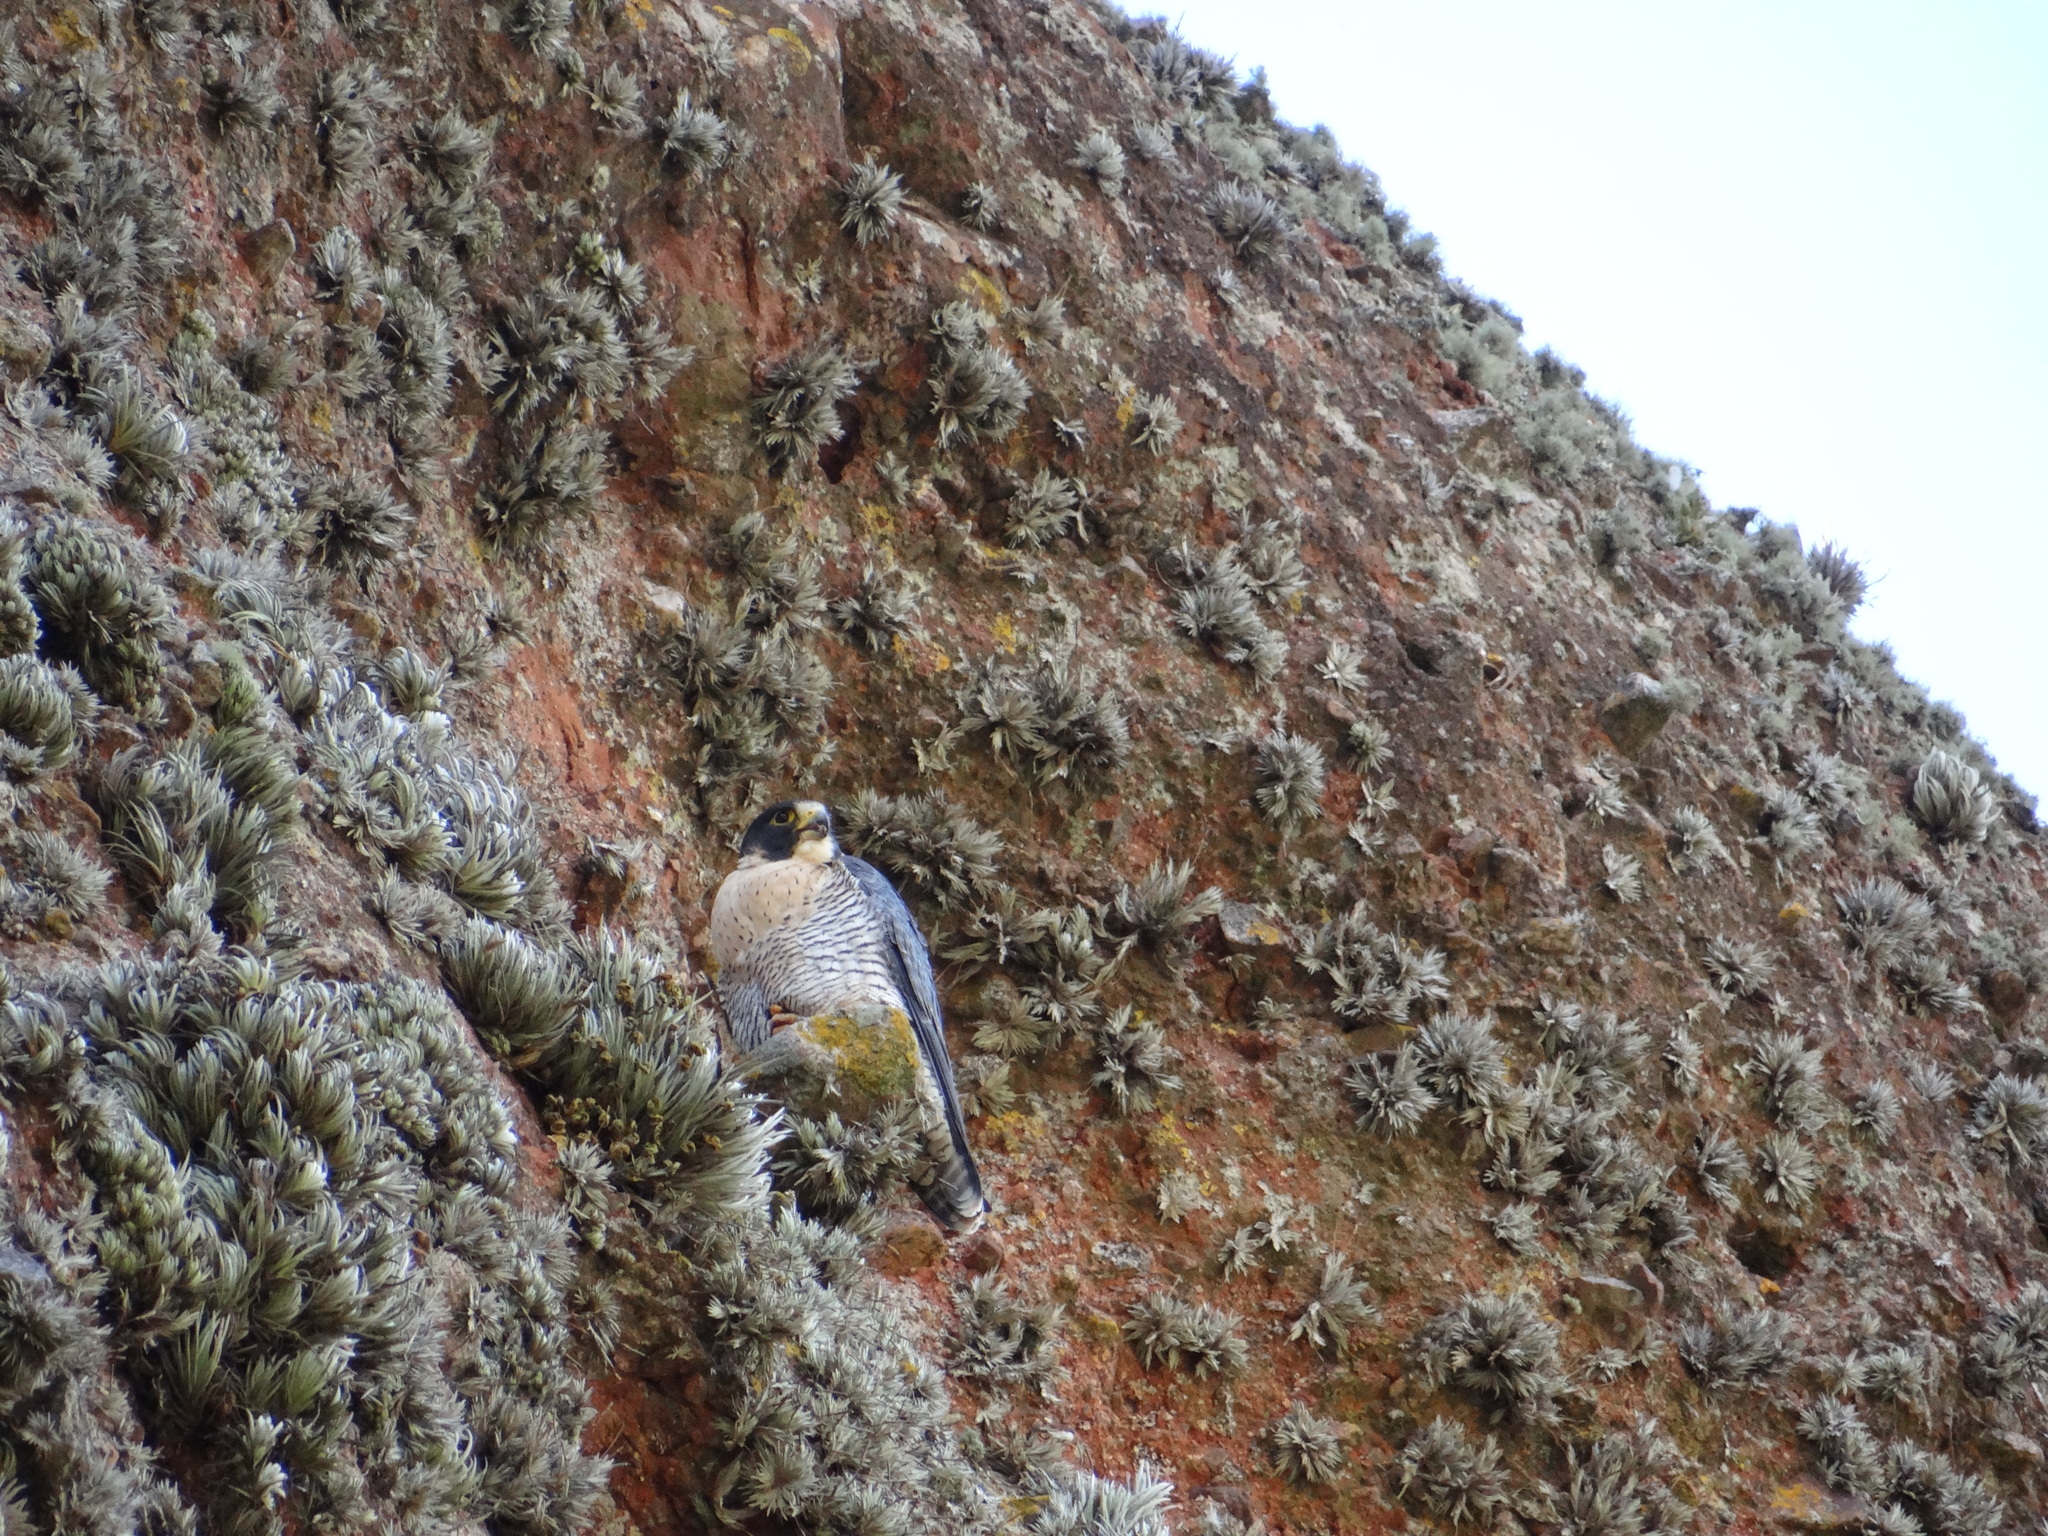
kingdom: Animalia
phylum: Chordata
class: Aves
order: Falconiformes
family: Falconidae
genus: Falco
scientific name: Falco peregrinus
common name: Peregrine falcon
